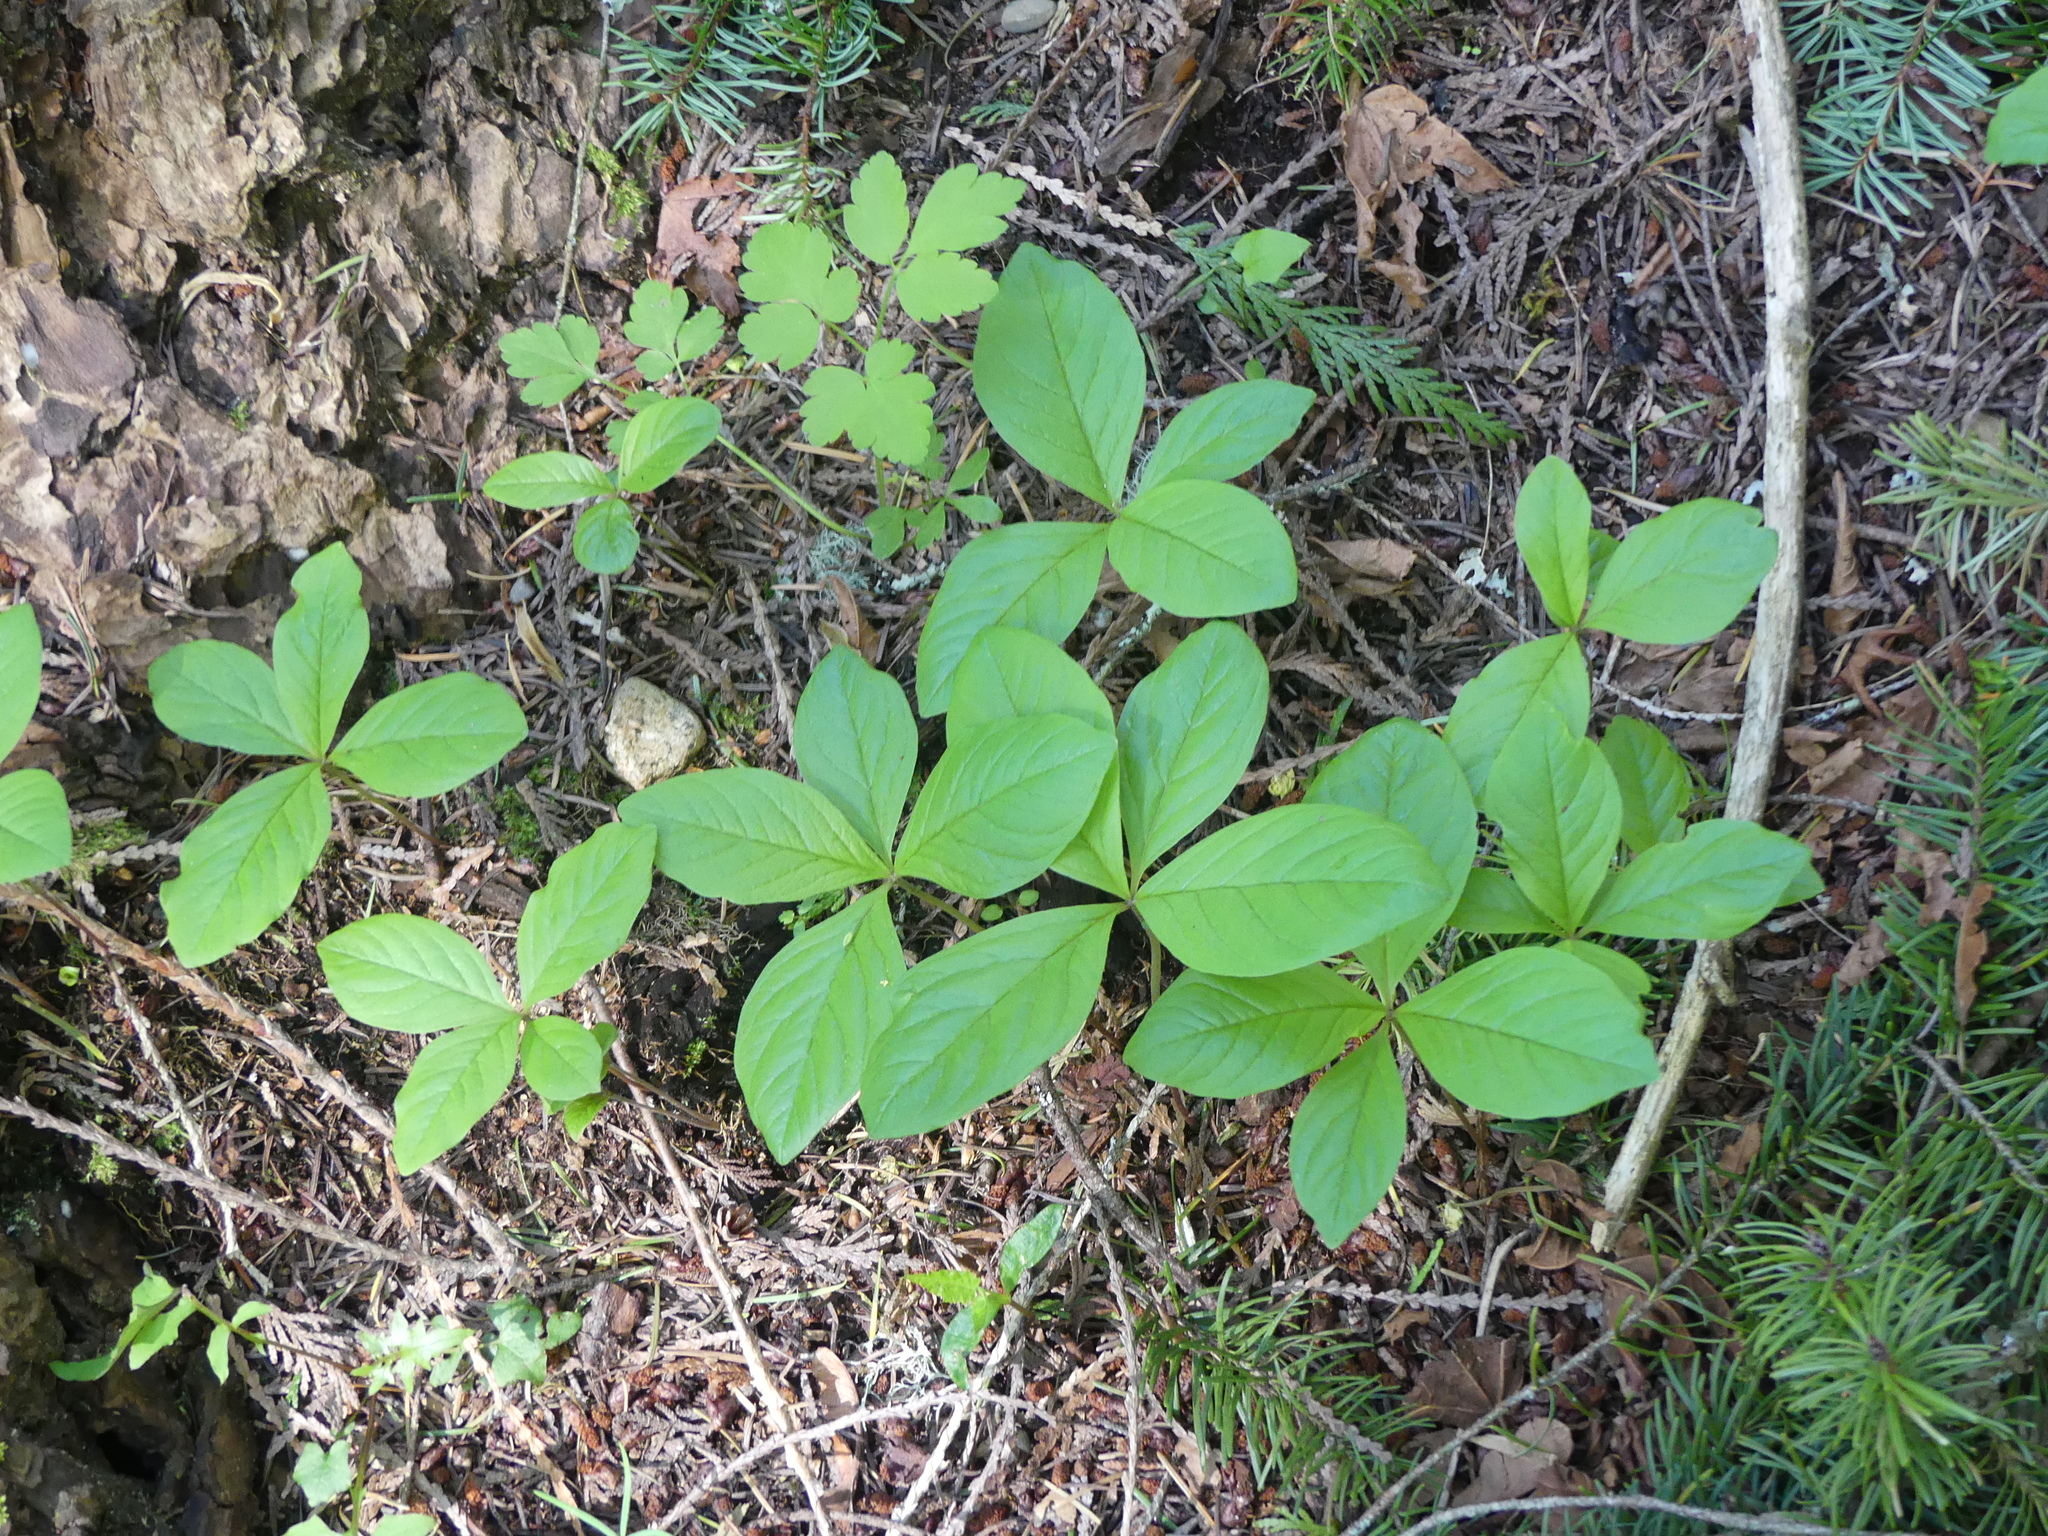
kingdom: Plantae
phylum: Tracheophyta
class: Magnoliopsida
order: Ericales
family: Primulaceae
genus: Lysimachia
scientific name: Lysimachia latifolia
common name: Pacific starflower
